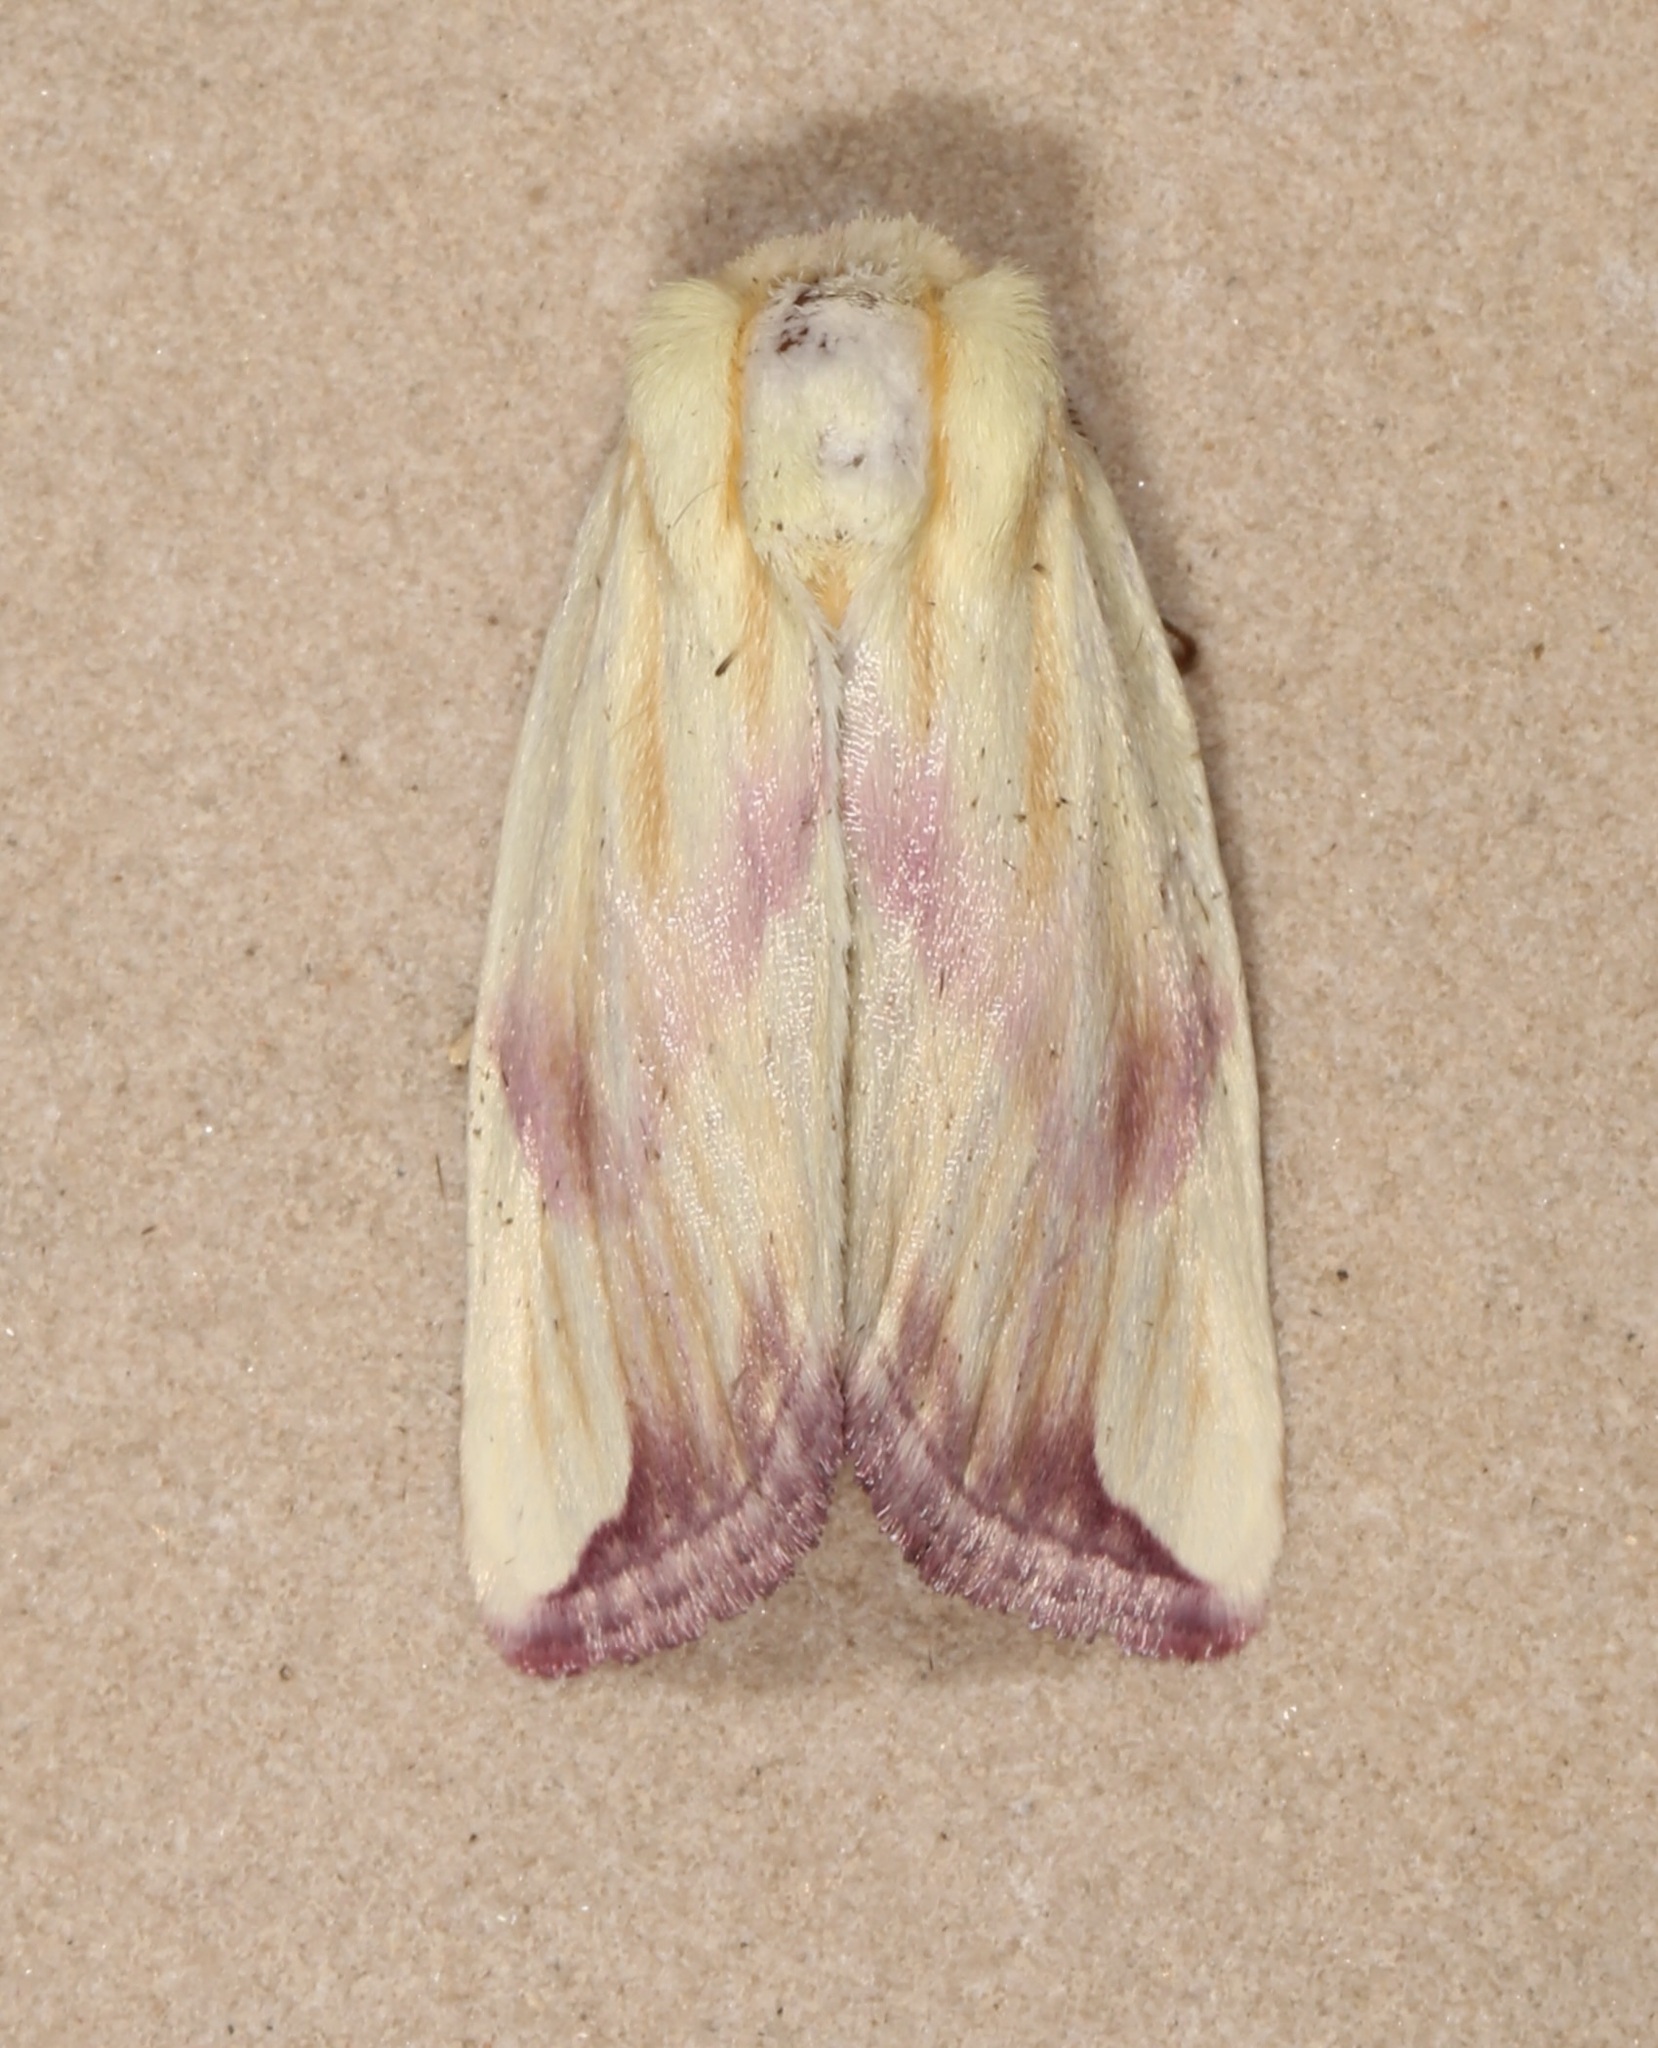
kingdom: Animalia
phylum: Arthropoda
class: Insecta
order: Lepidoptera
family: Noctuidae
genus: Thurberiphaga
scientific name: Thurberiphaga diffusa
